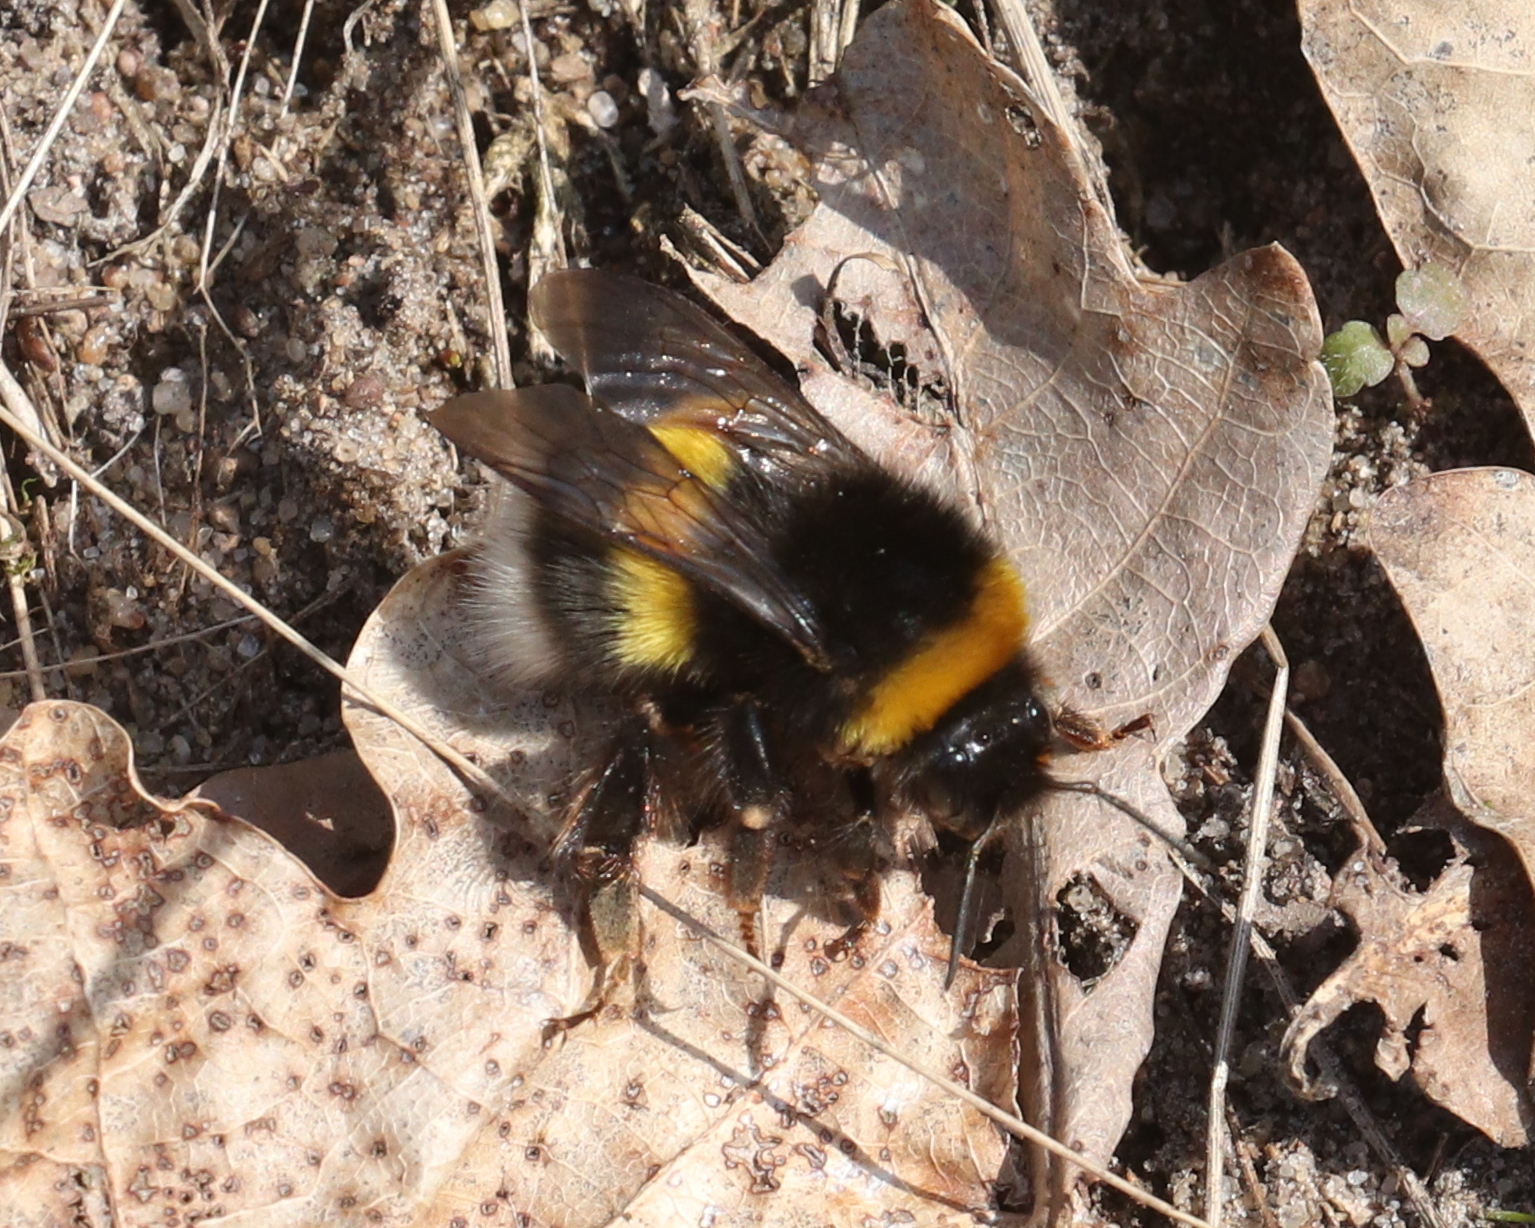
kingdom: Animalia
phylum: Arthropoda
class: Insecta
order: Hymenoptera
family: Apidae
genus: Bombus
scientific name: Bombus
